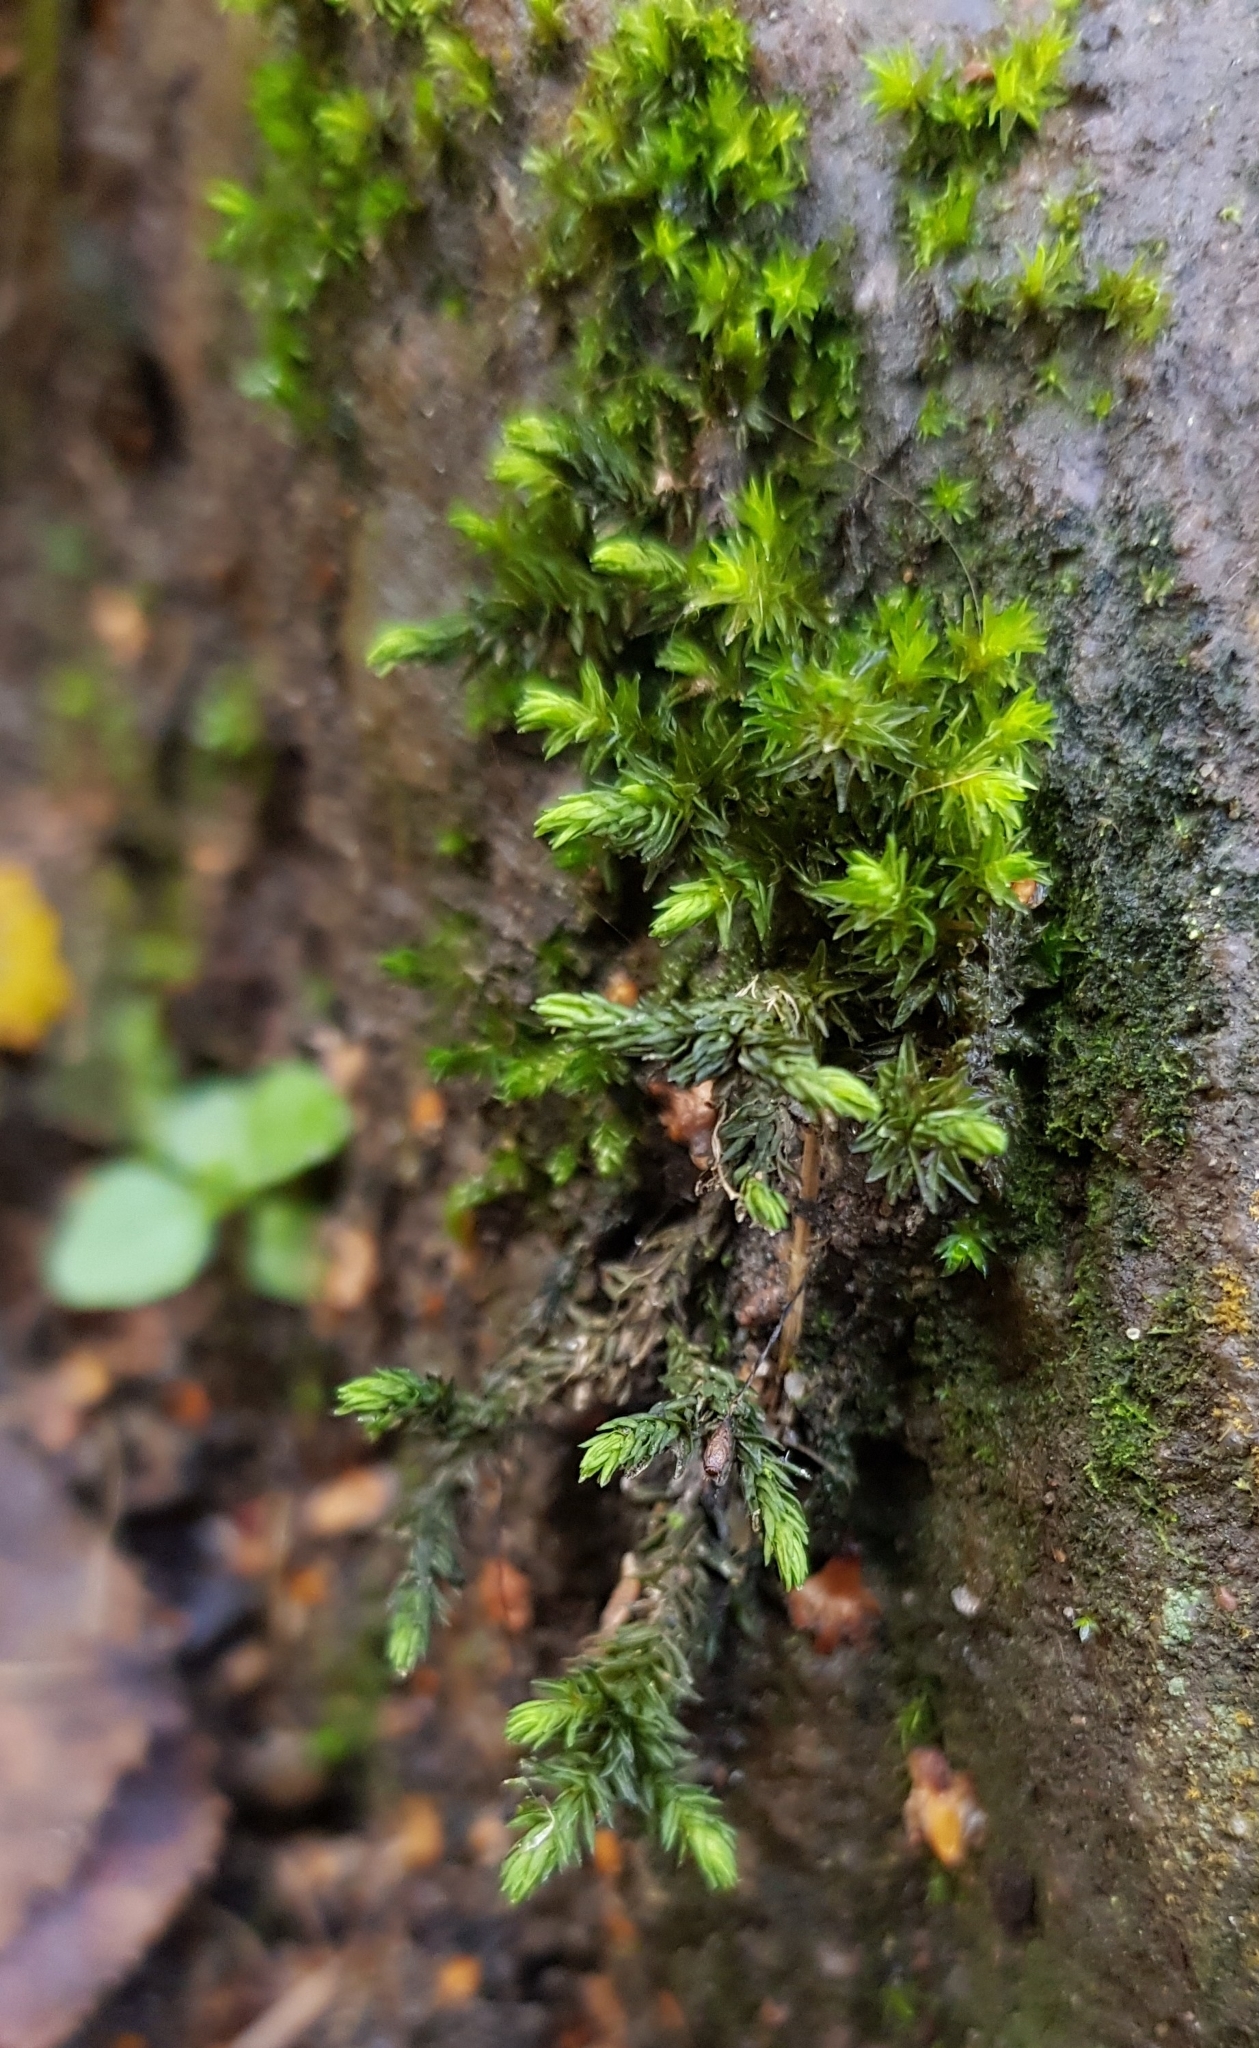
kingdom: Plantae
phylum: Bryophyta
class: Bryopsida
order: Grimmiales
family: Grimmiaceae
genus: Codriophorus
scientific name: Codriophorus acicularis
